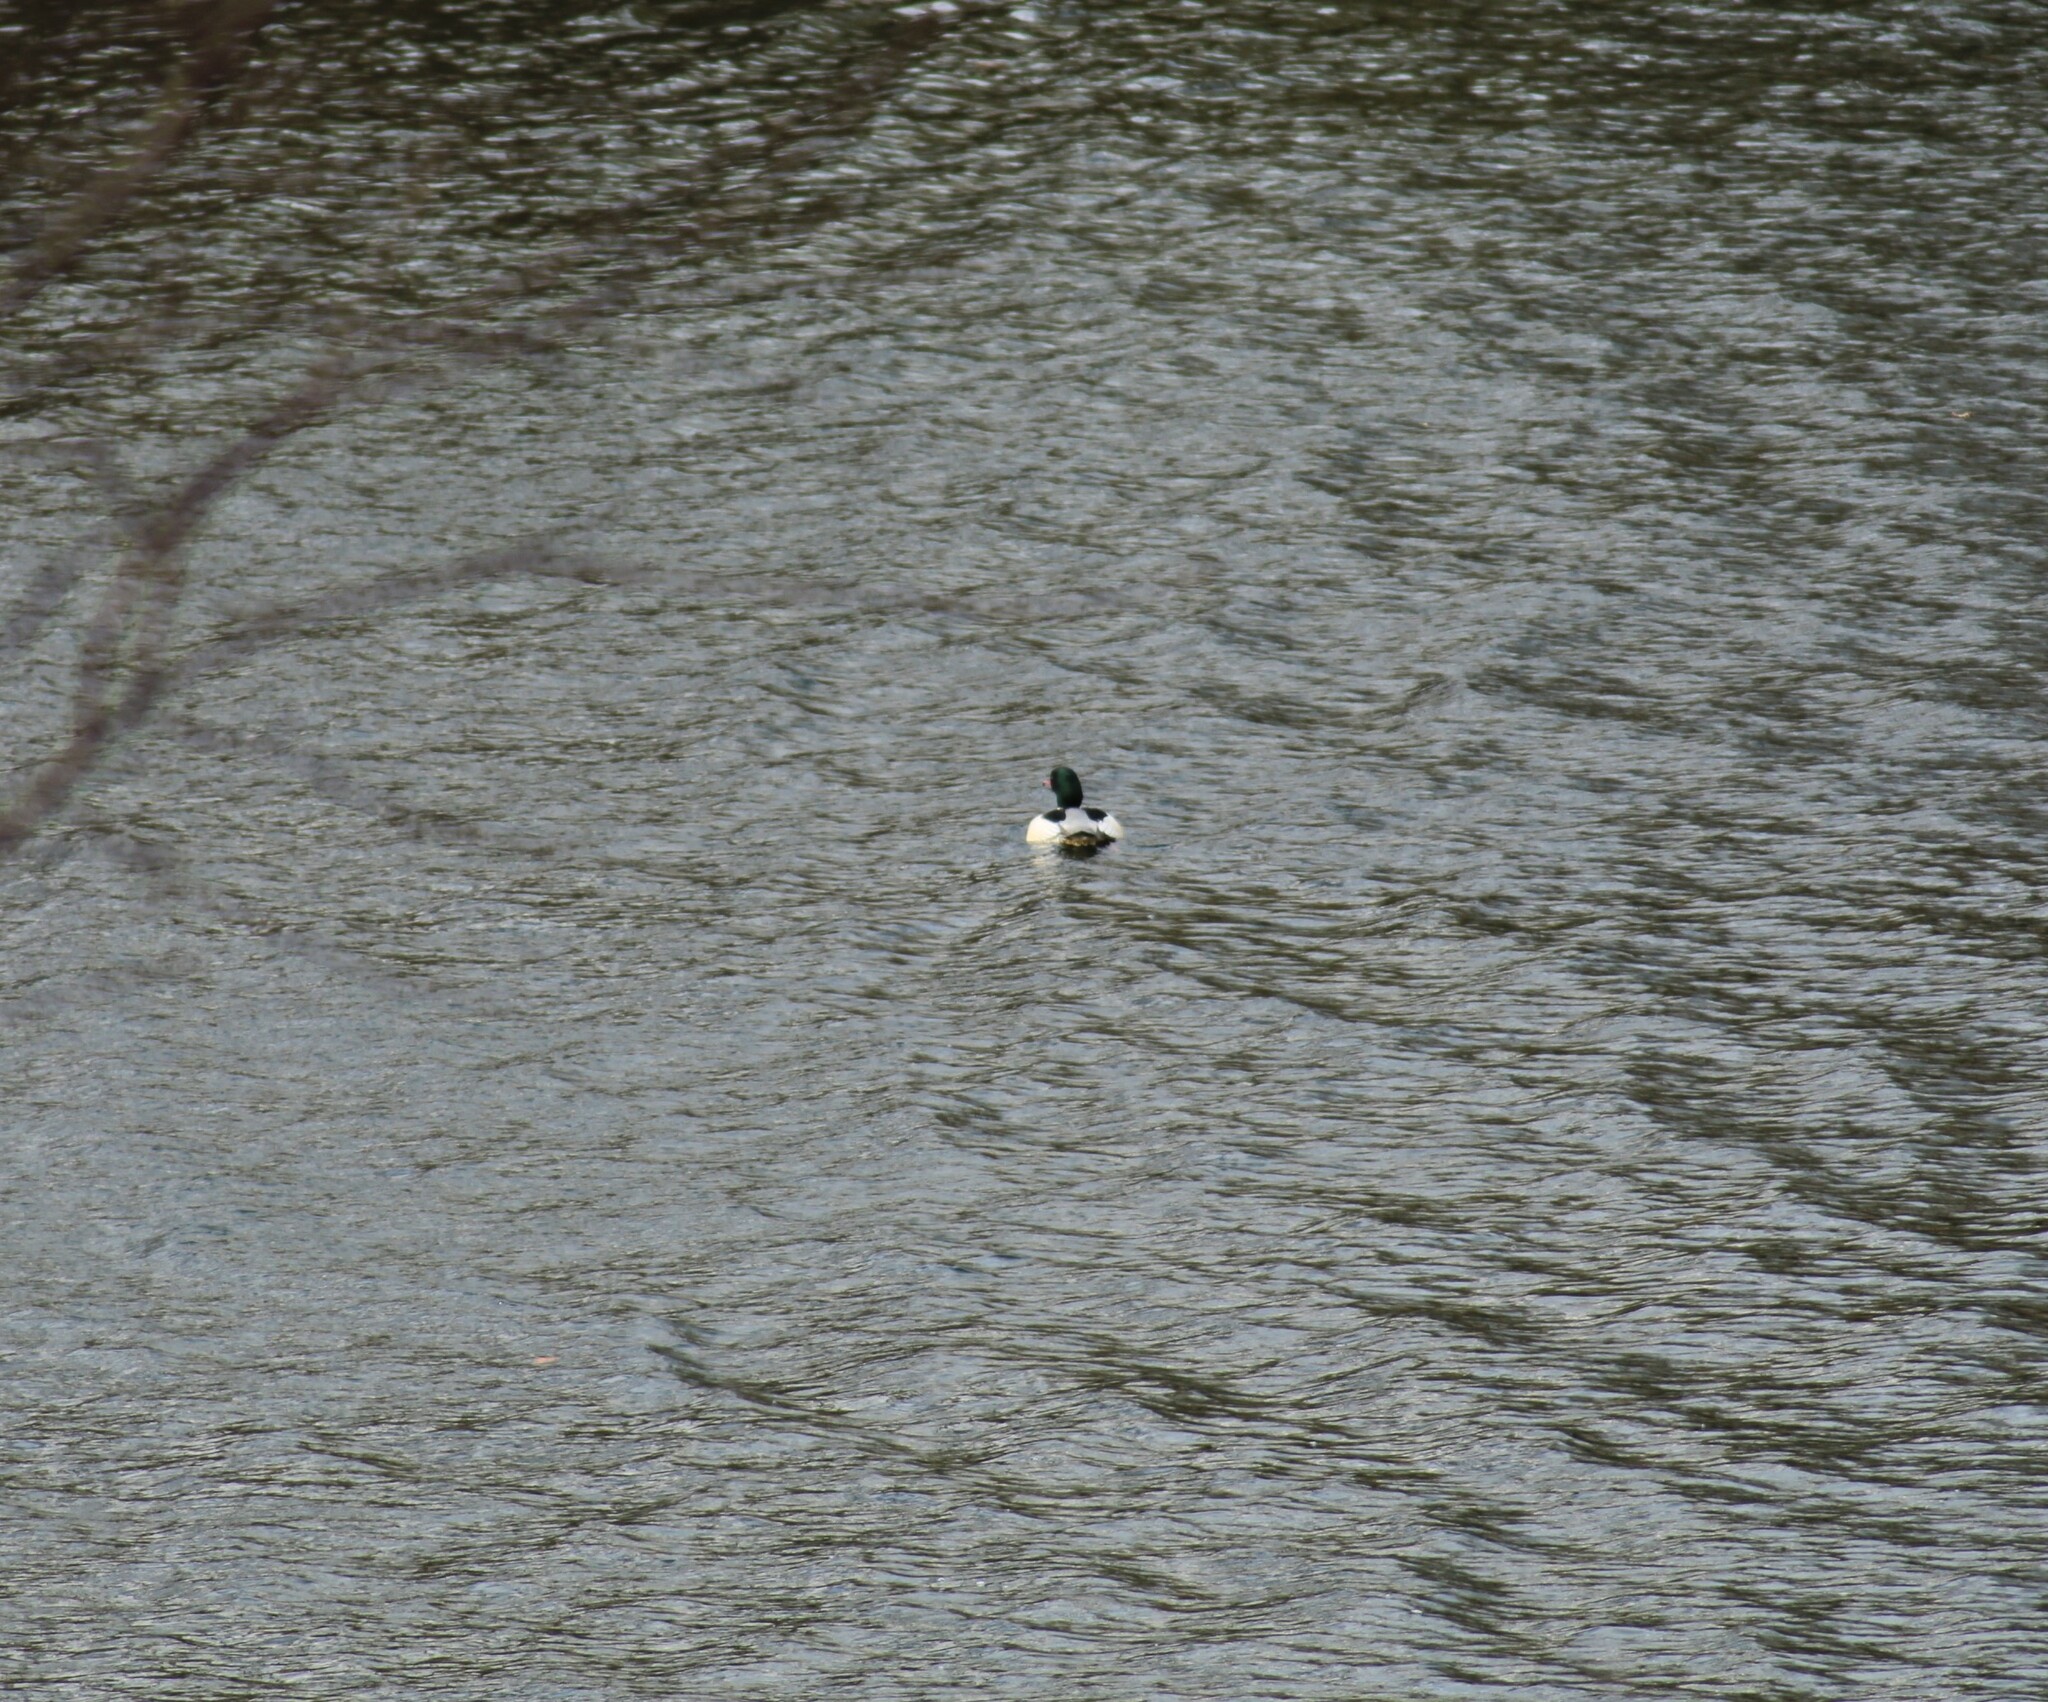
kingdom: Animalia
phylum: Chordata
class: Aves
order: Anseriformes
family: Anatidae
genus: Mergus
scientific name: Mergus merganser
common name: Common merganser
